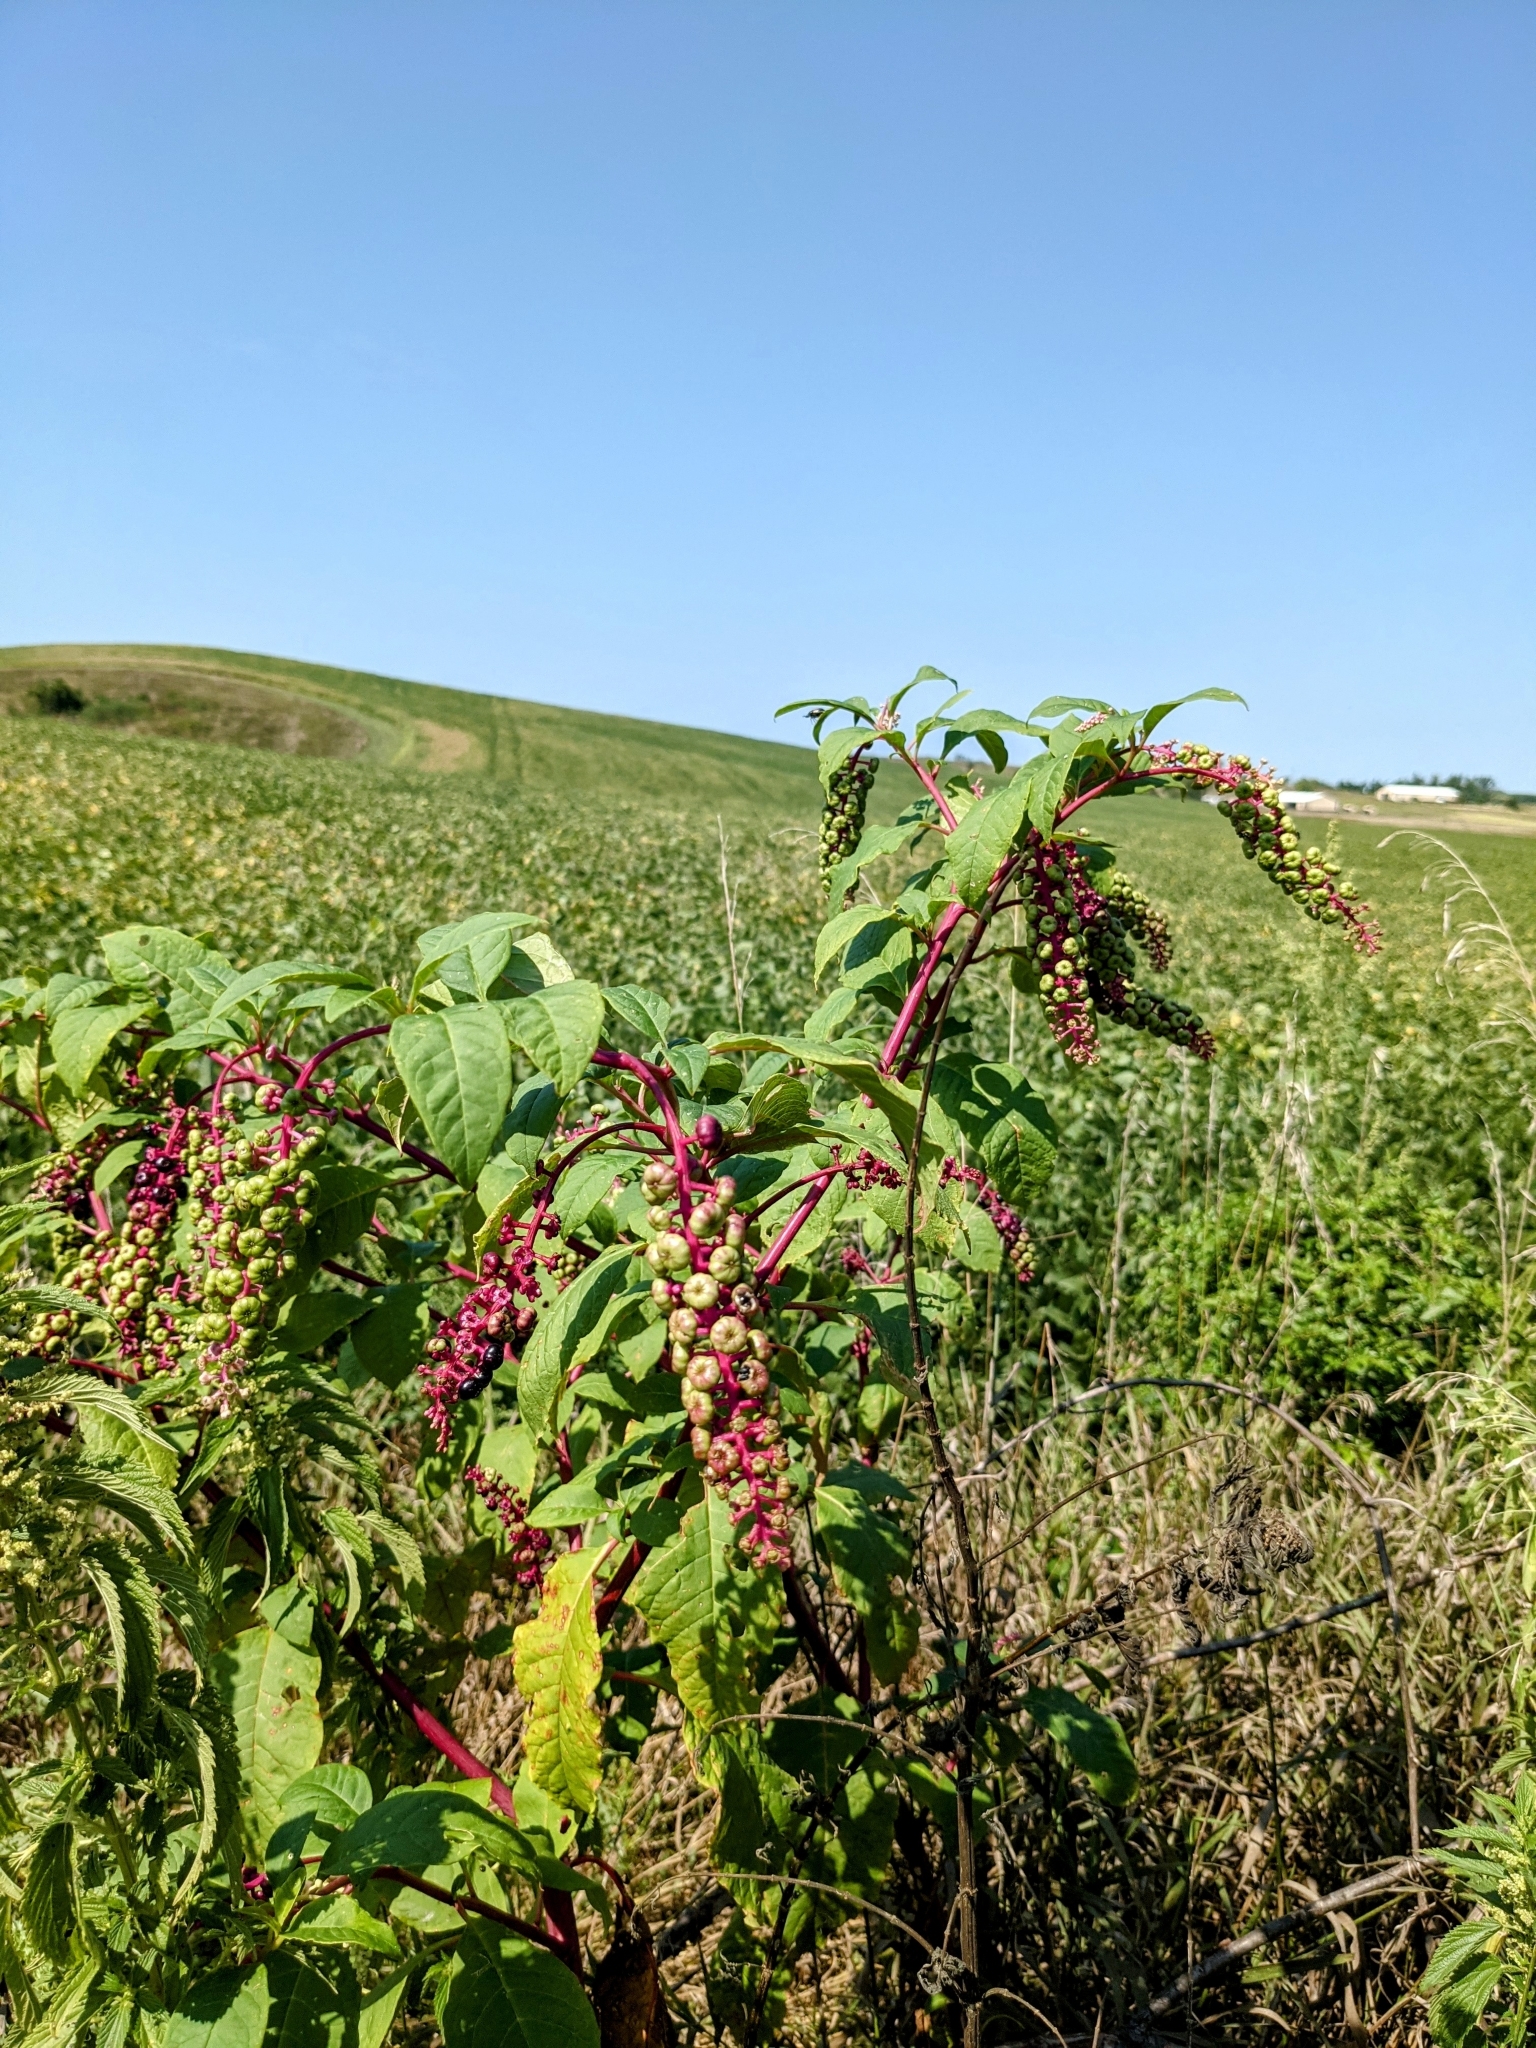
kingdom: Plantae
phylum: Tracheophyta
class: Magnoliopsida
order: Caryophyllales
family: Phytolaccaceae
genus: Phytolacca
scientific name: Phytolacca americana
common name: American pokeweed
